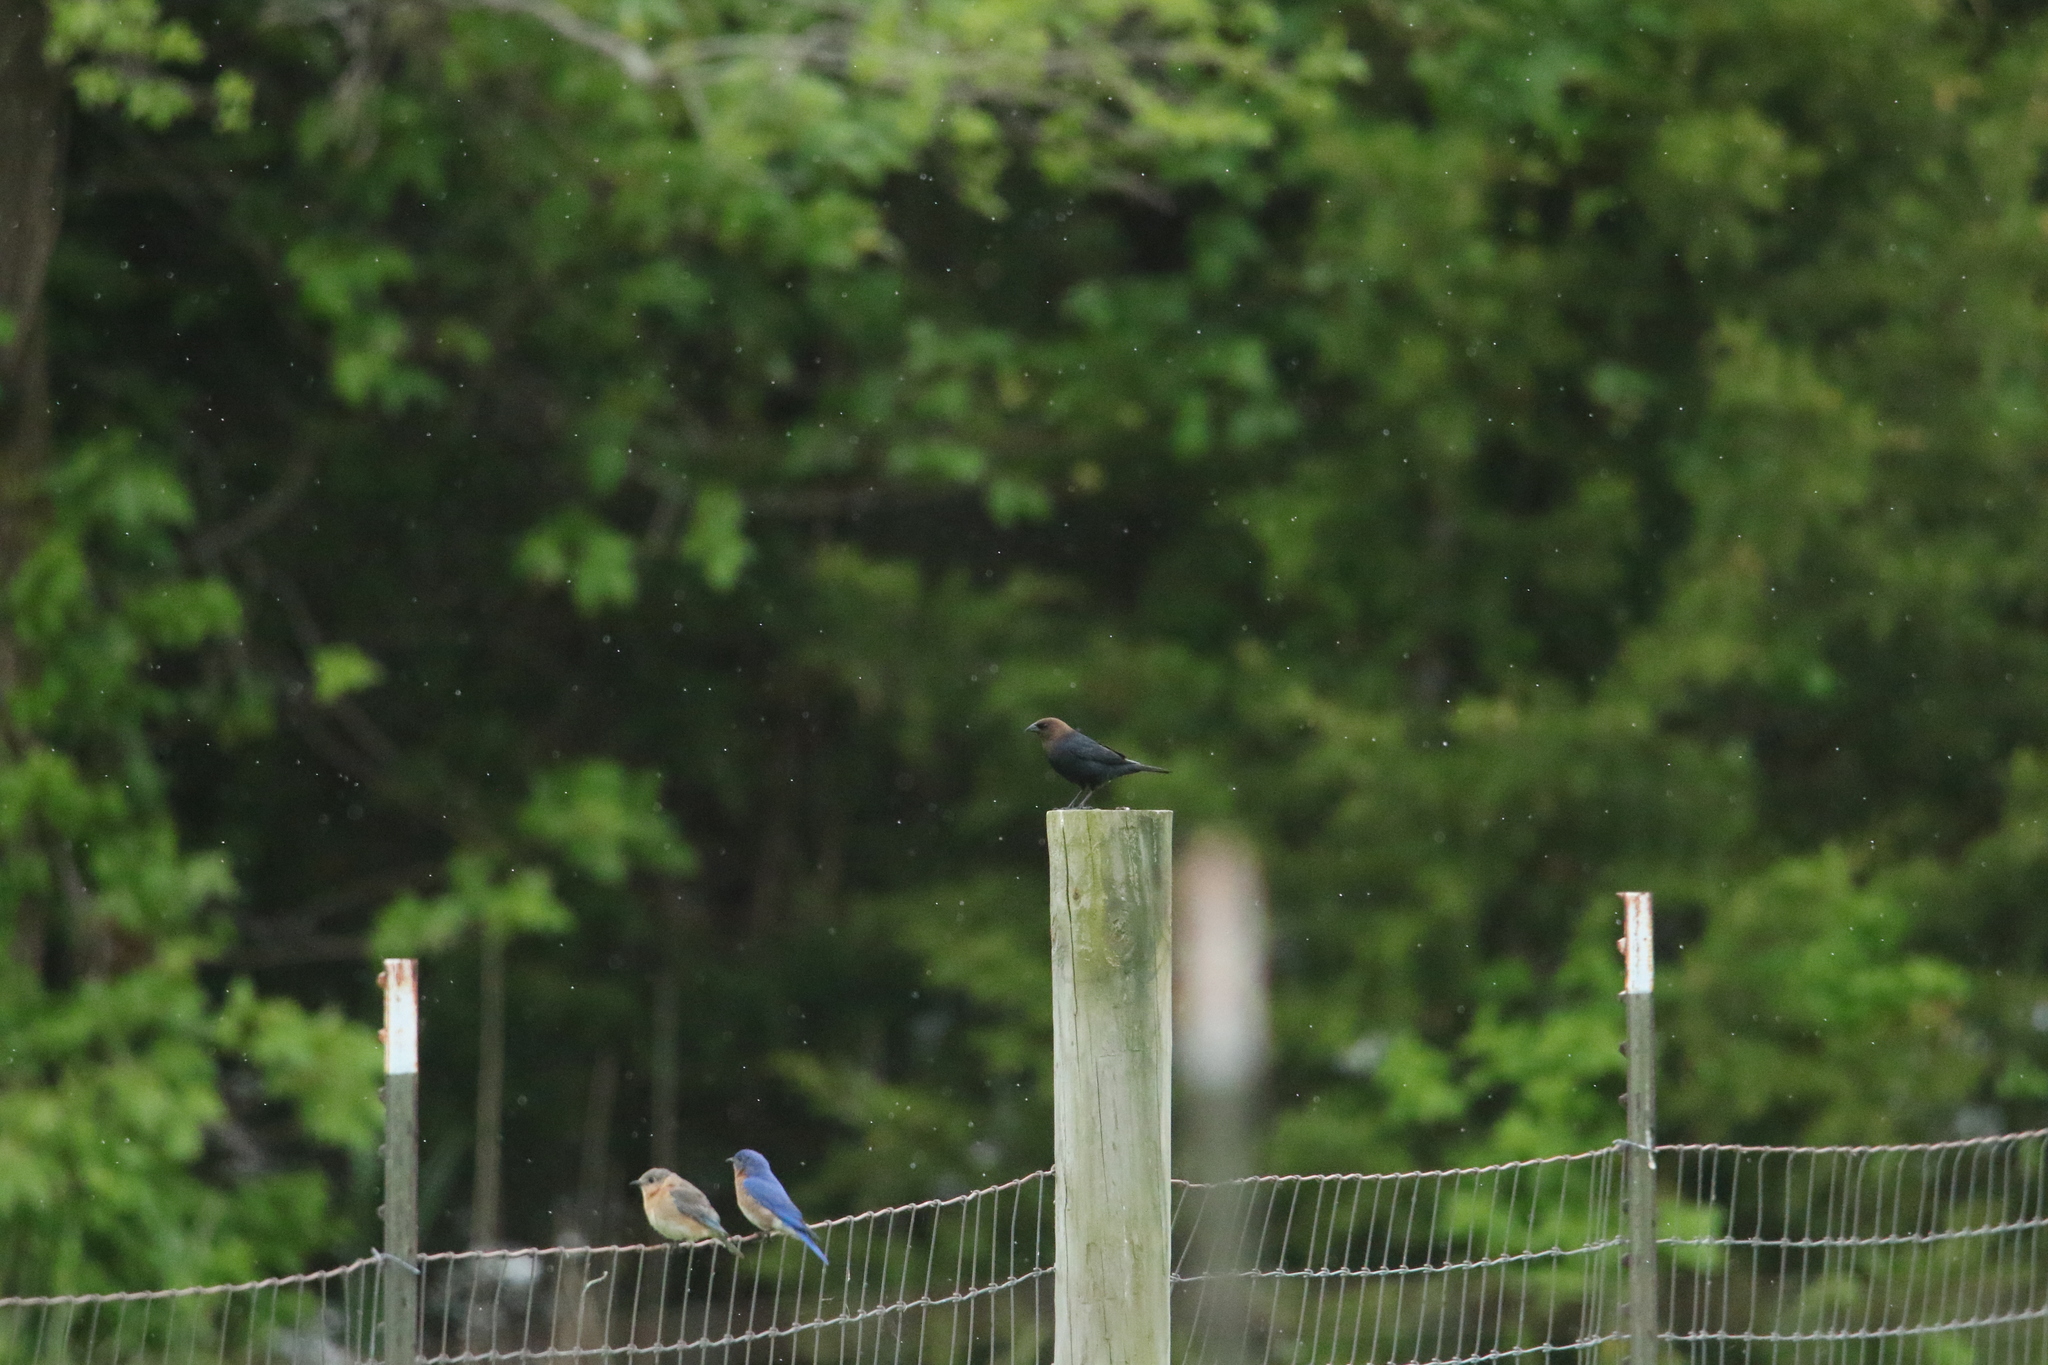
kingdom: Animalia
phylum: Chordata
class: Aves
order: Passeriformes
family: Icteridae
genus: Molothrus
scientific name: Molothrus ater
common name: Brown-headed cowbird
